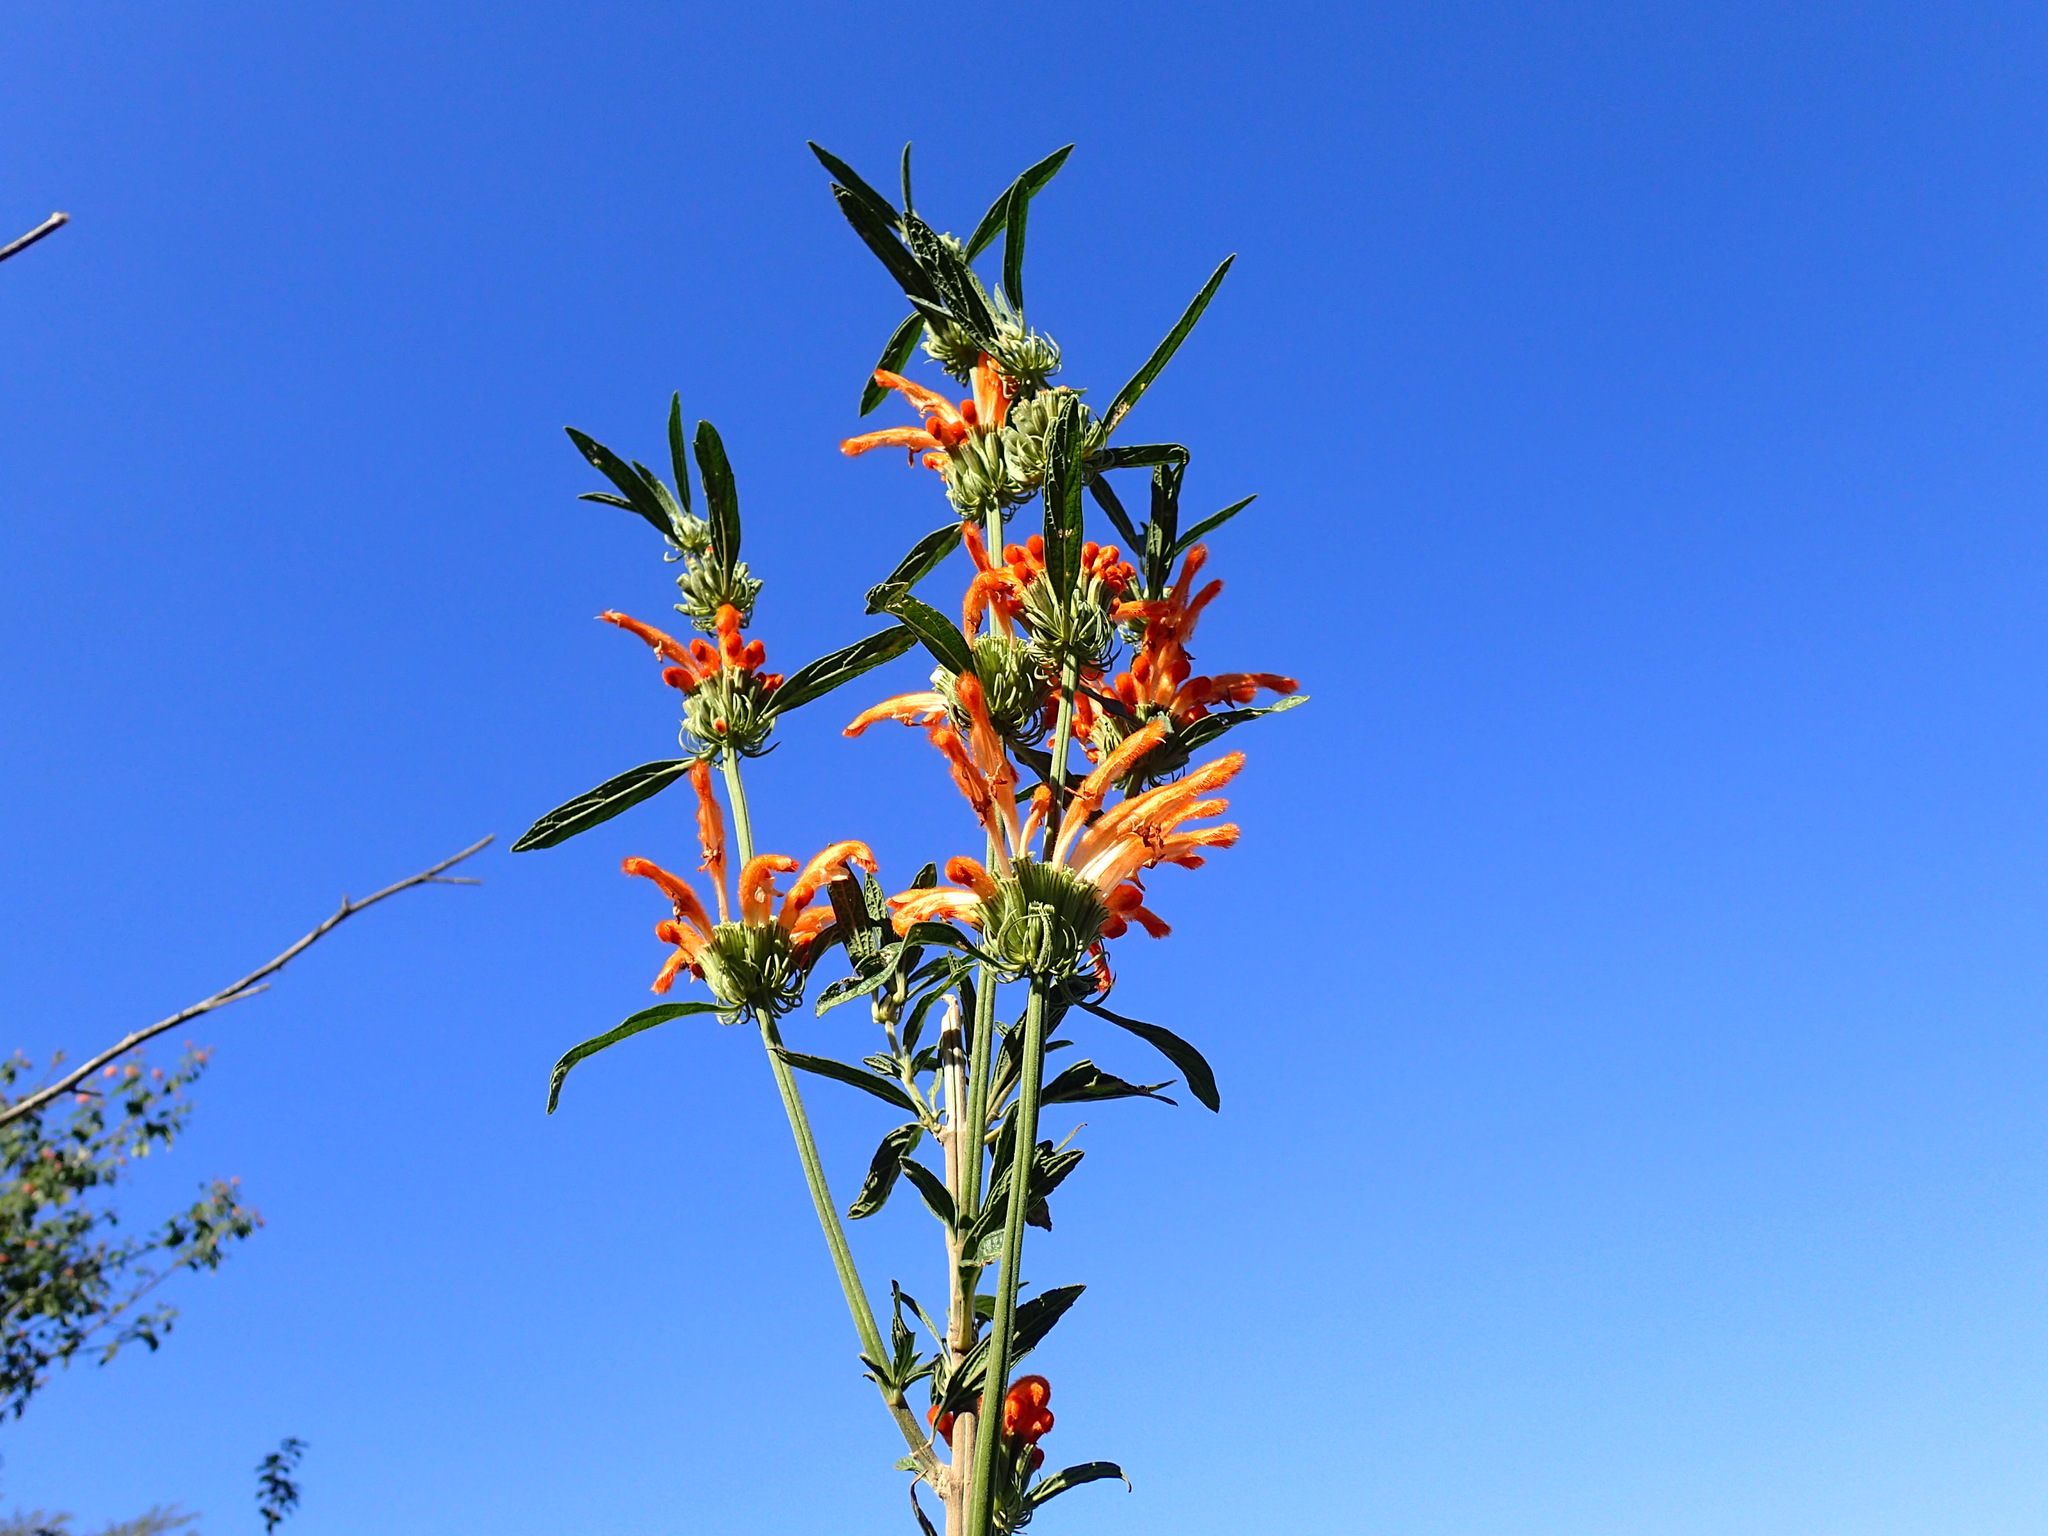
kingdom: Plantae
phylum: Tracheophyta
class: Magnoliopsida
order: Lamiales
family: Lamiaceae
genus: Leonotis
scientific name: Leonotis leonurus
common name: Lion's ear
